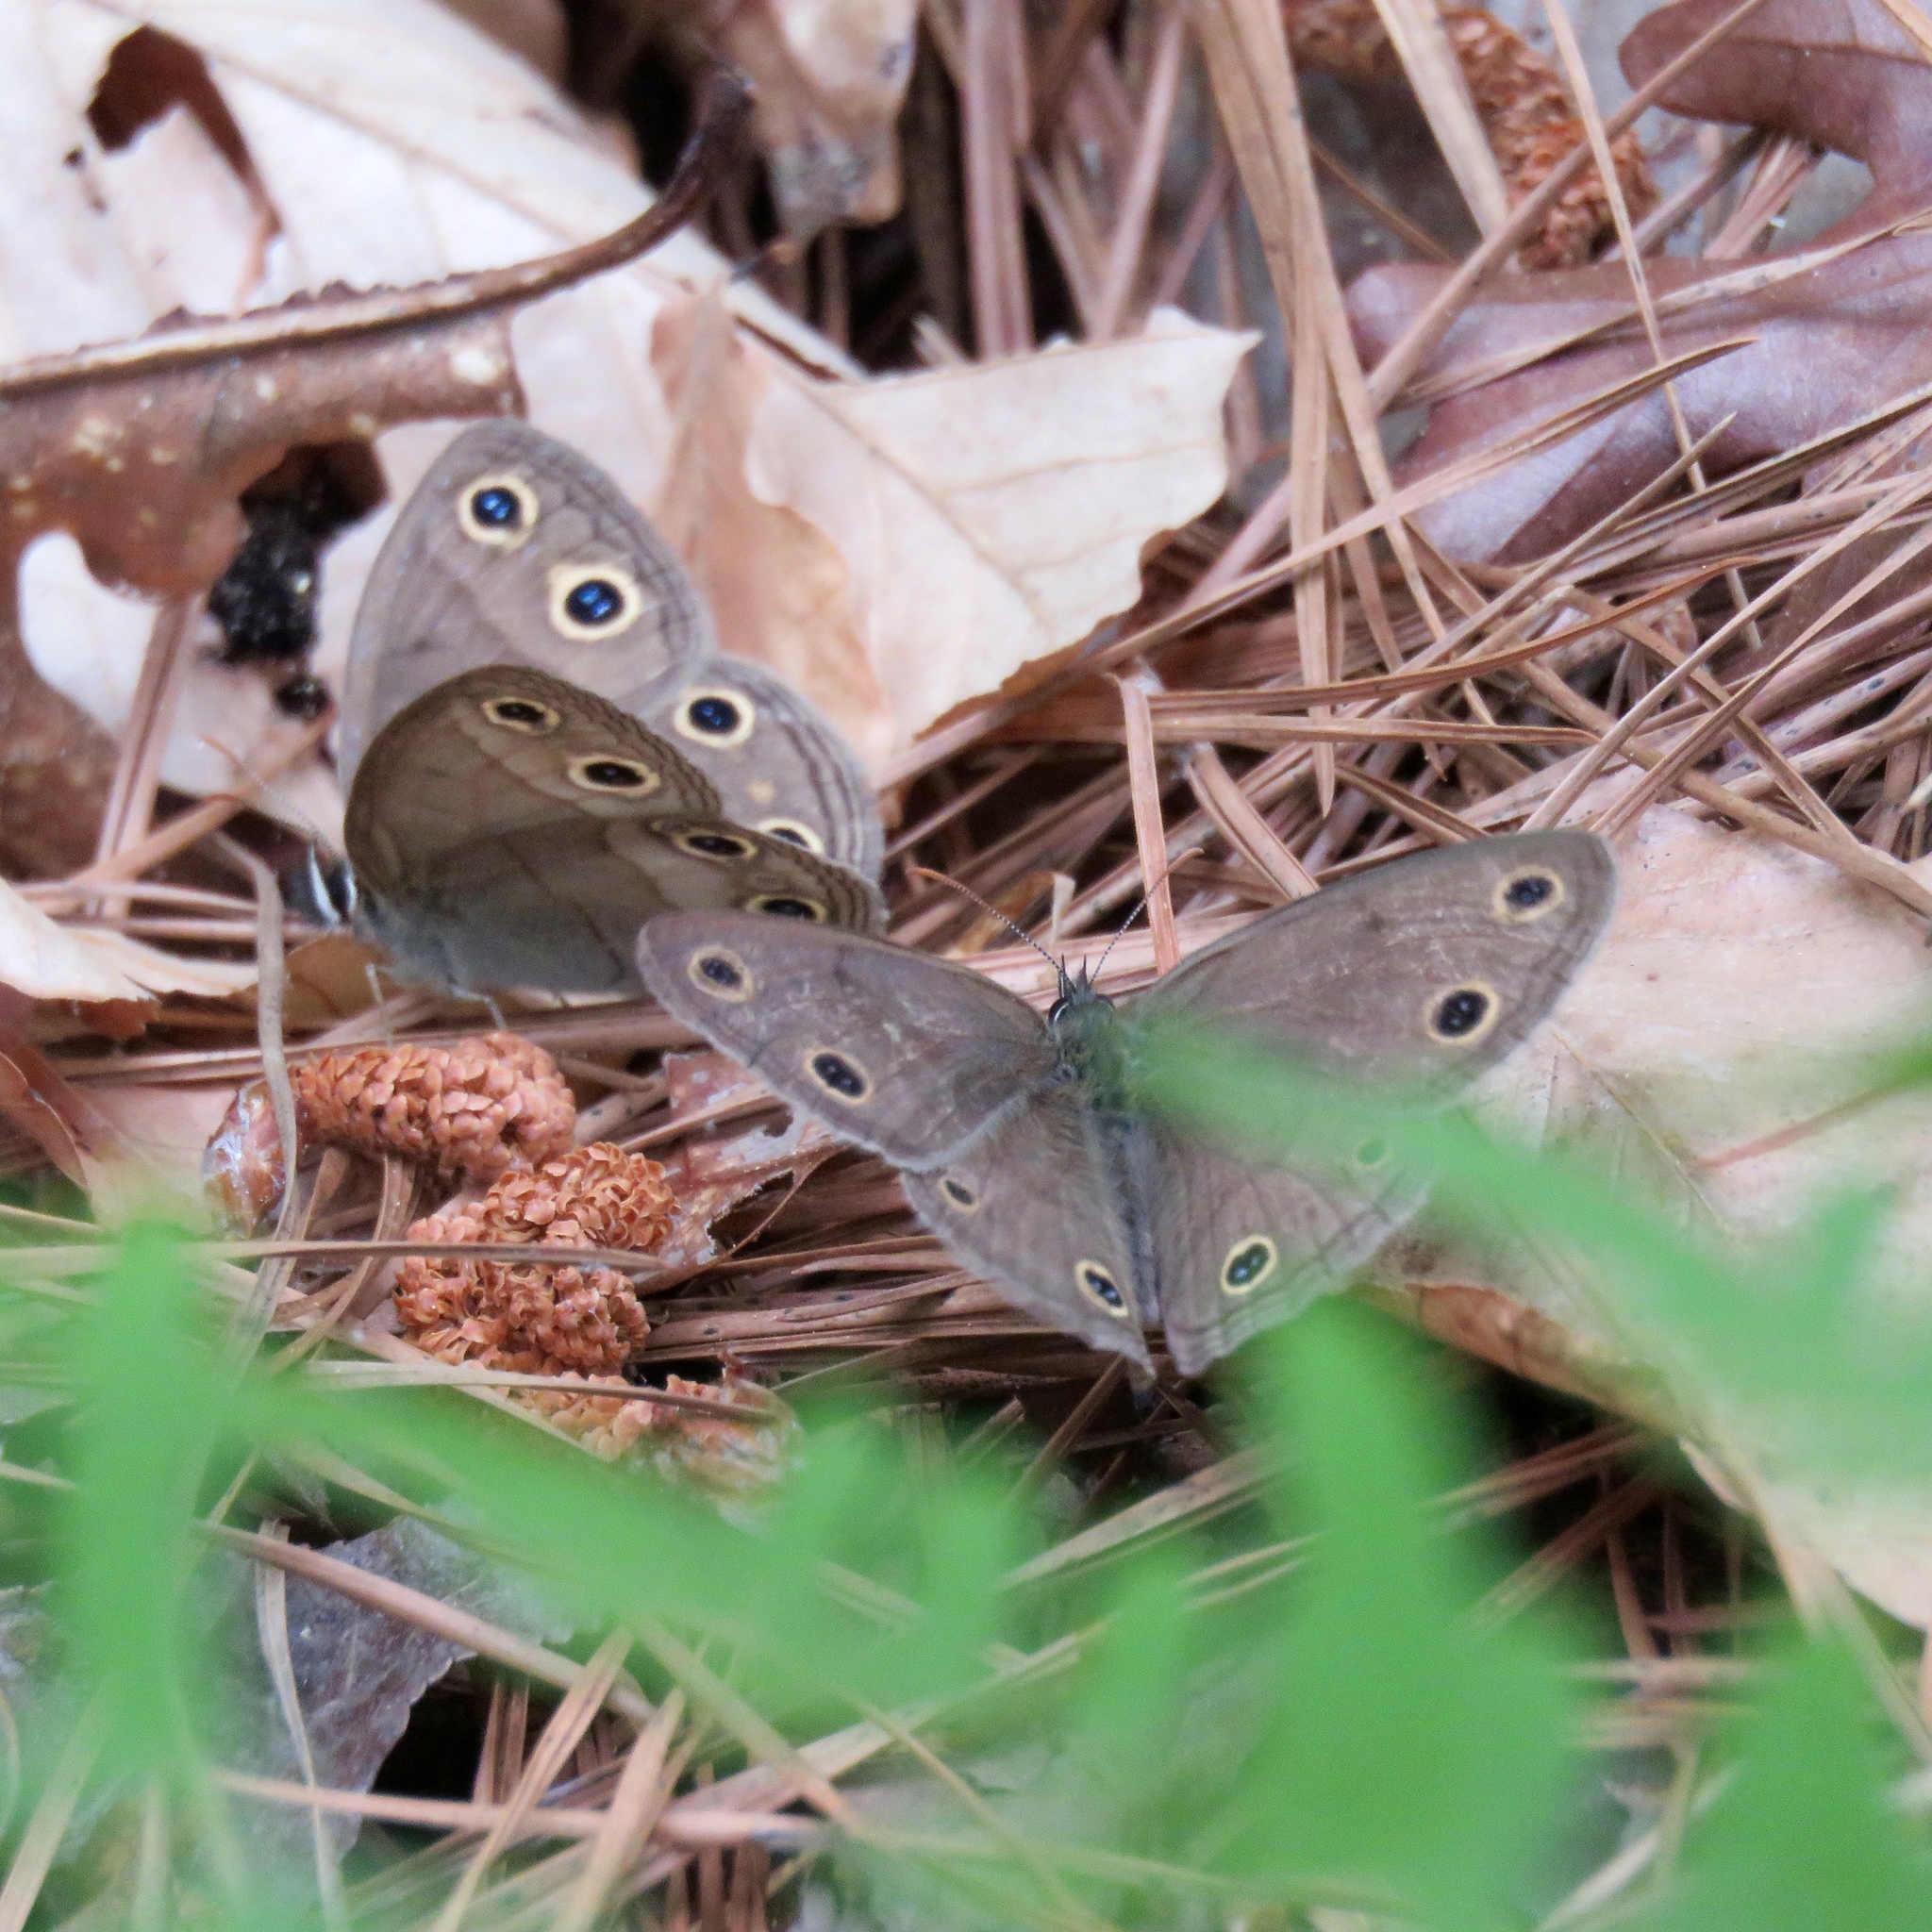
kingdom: Animalia
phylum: Arthropoda
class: Insecta
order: Lepidoptera
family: Nymphalidae
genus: Euptychia
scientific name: Euptychia cymela
